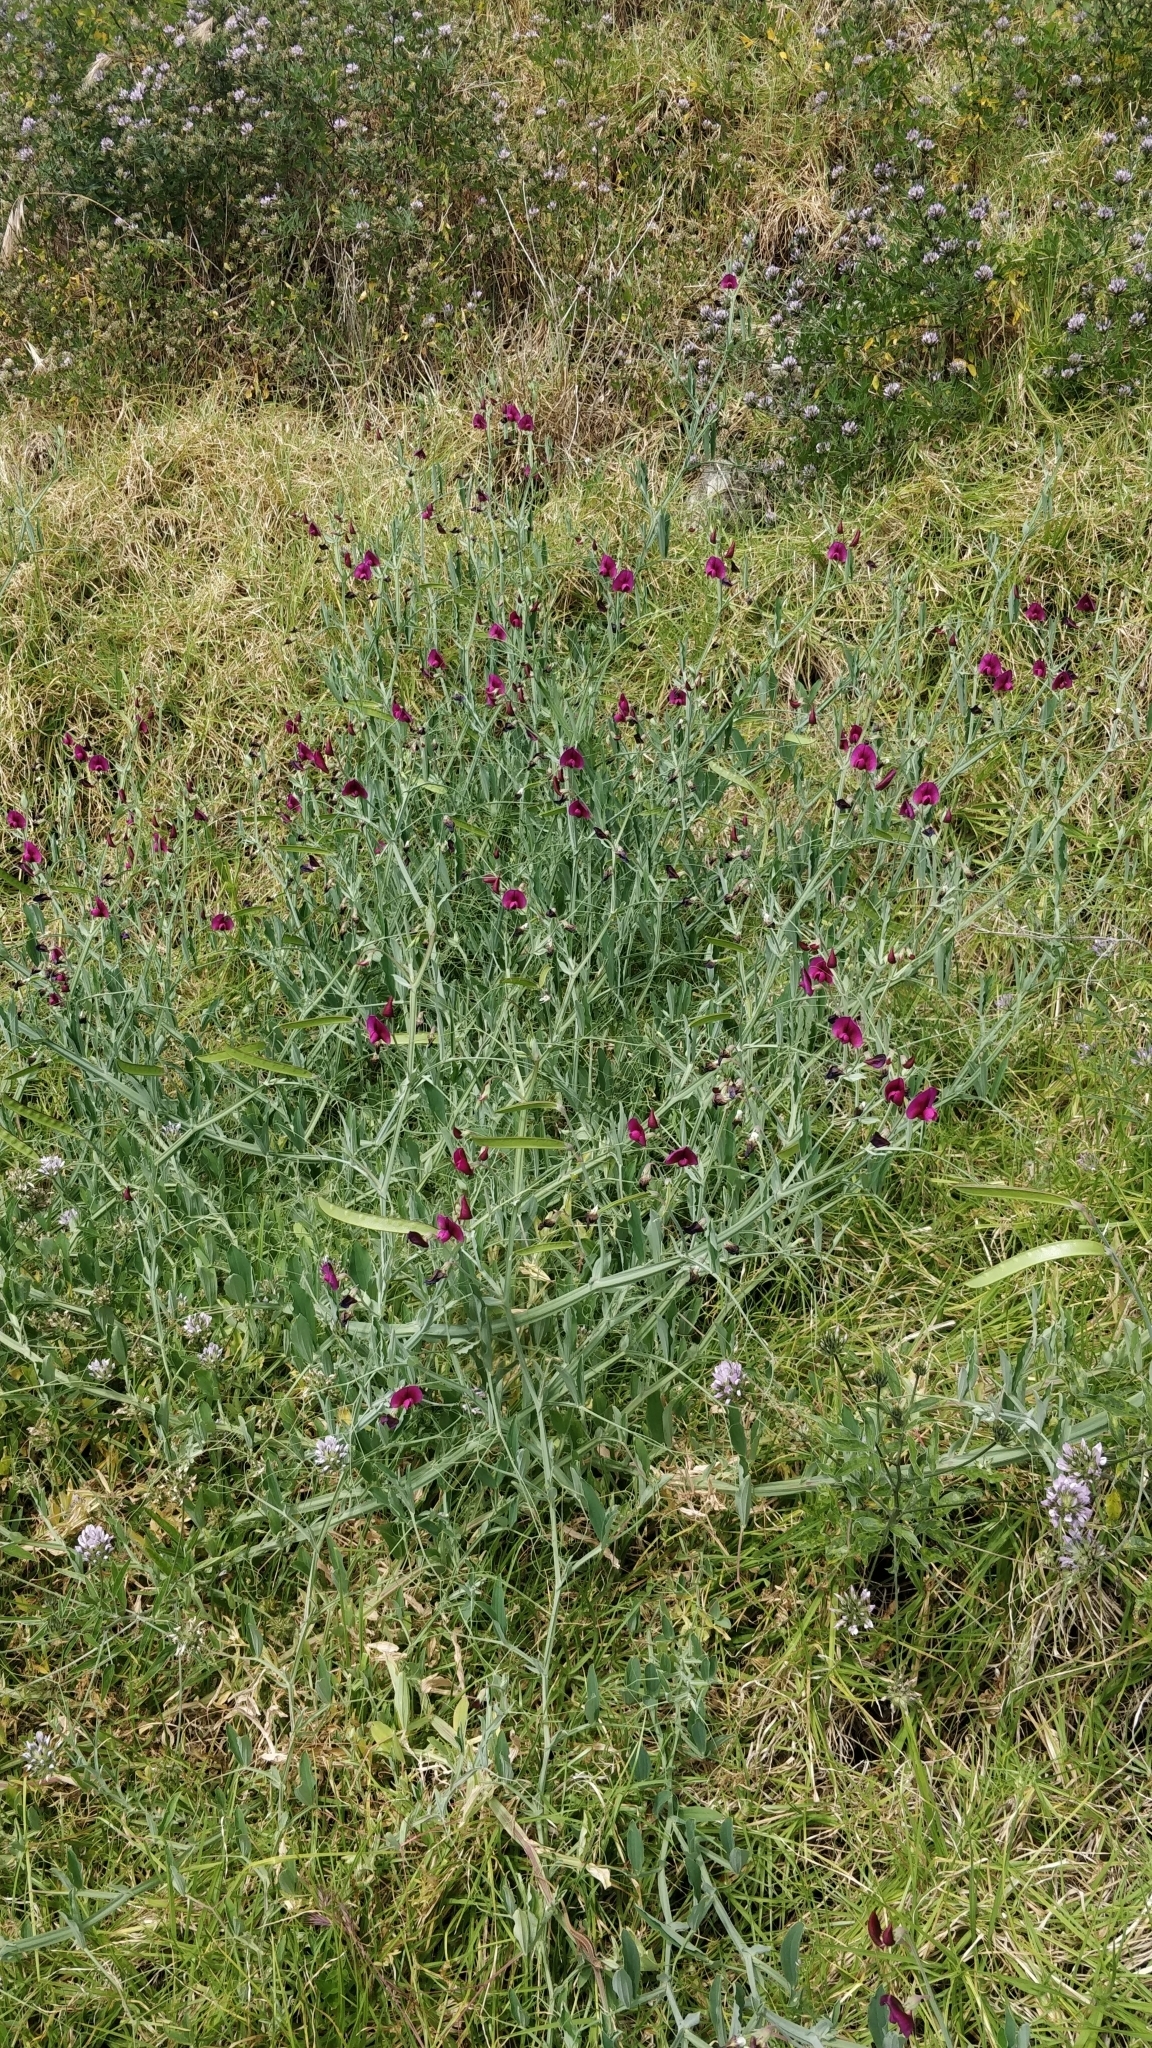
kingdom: Plantae
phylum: Tracheophyta
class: Magnoliopsida
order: Fabales
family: Fabaceae
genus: Lathyrus
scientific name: Lathyrus tingitanus
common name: Tangier pea
